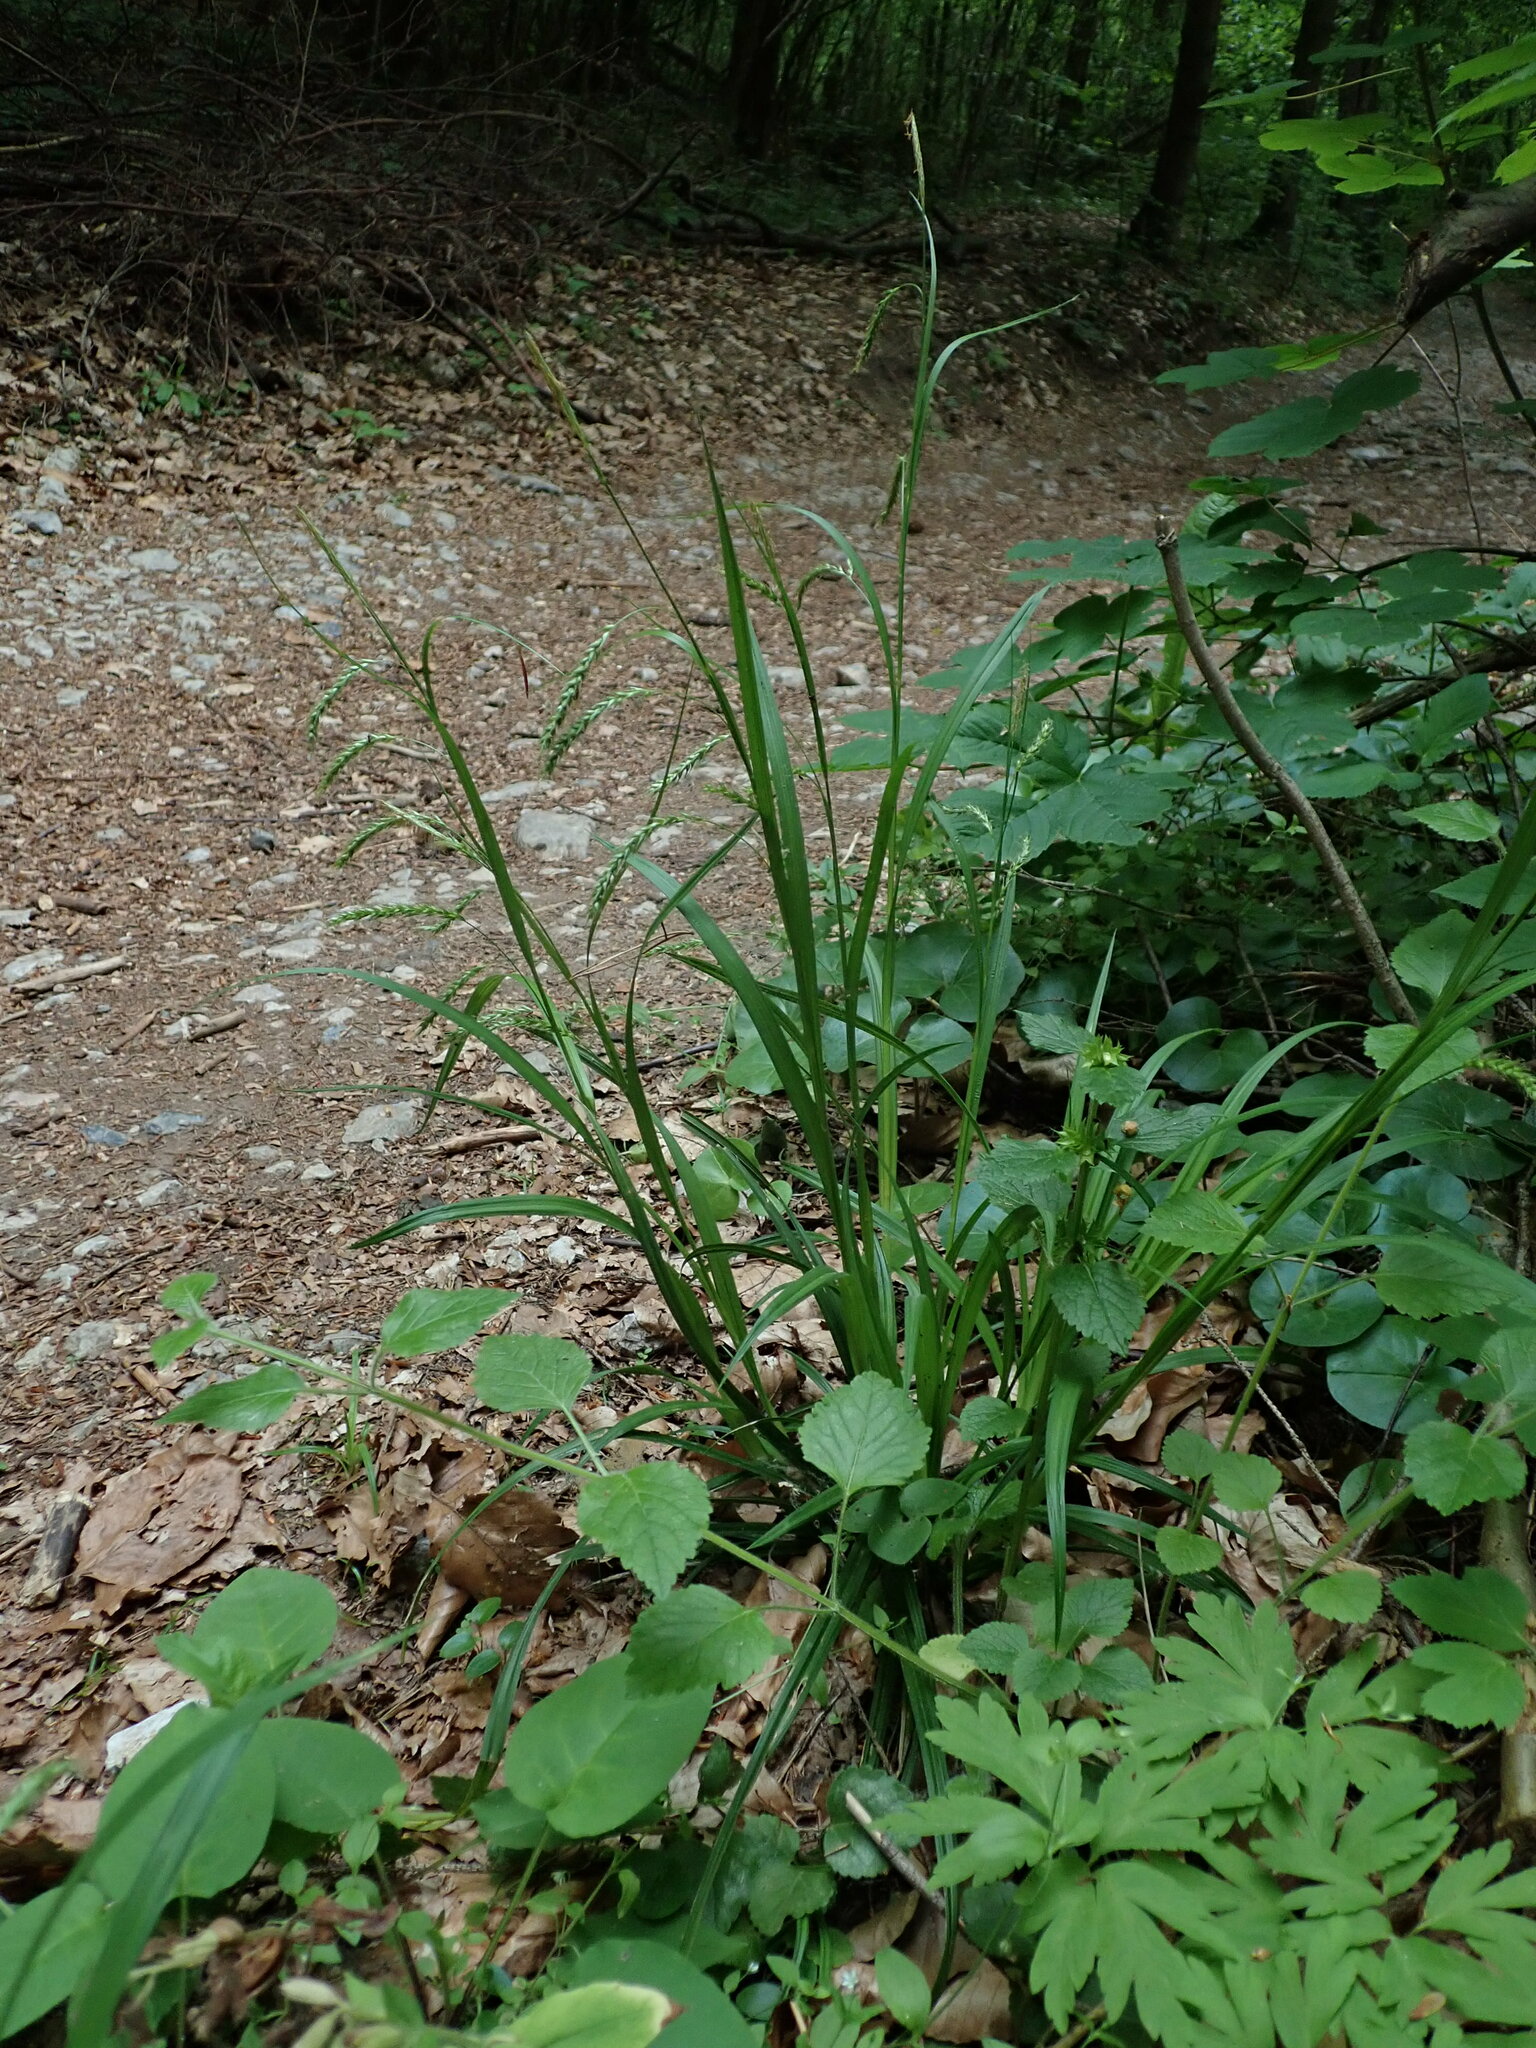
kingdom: Plantae
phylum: Tracheophyta
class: Liliopsida
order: Poales
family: Cyperaceae
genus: Carex
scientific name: Carex sylvatica
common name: Wood-sedge
